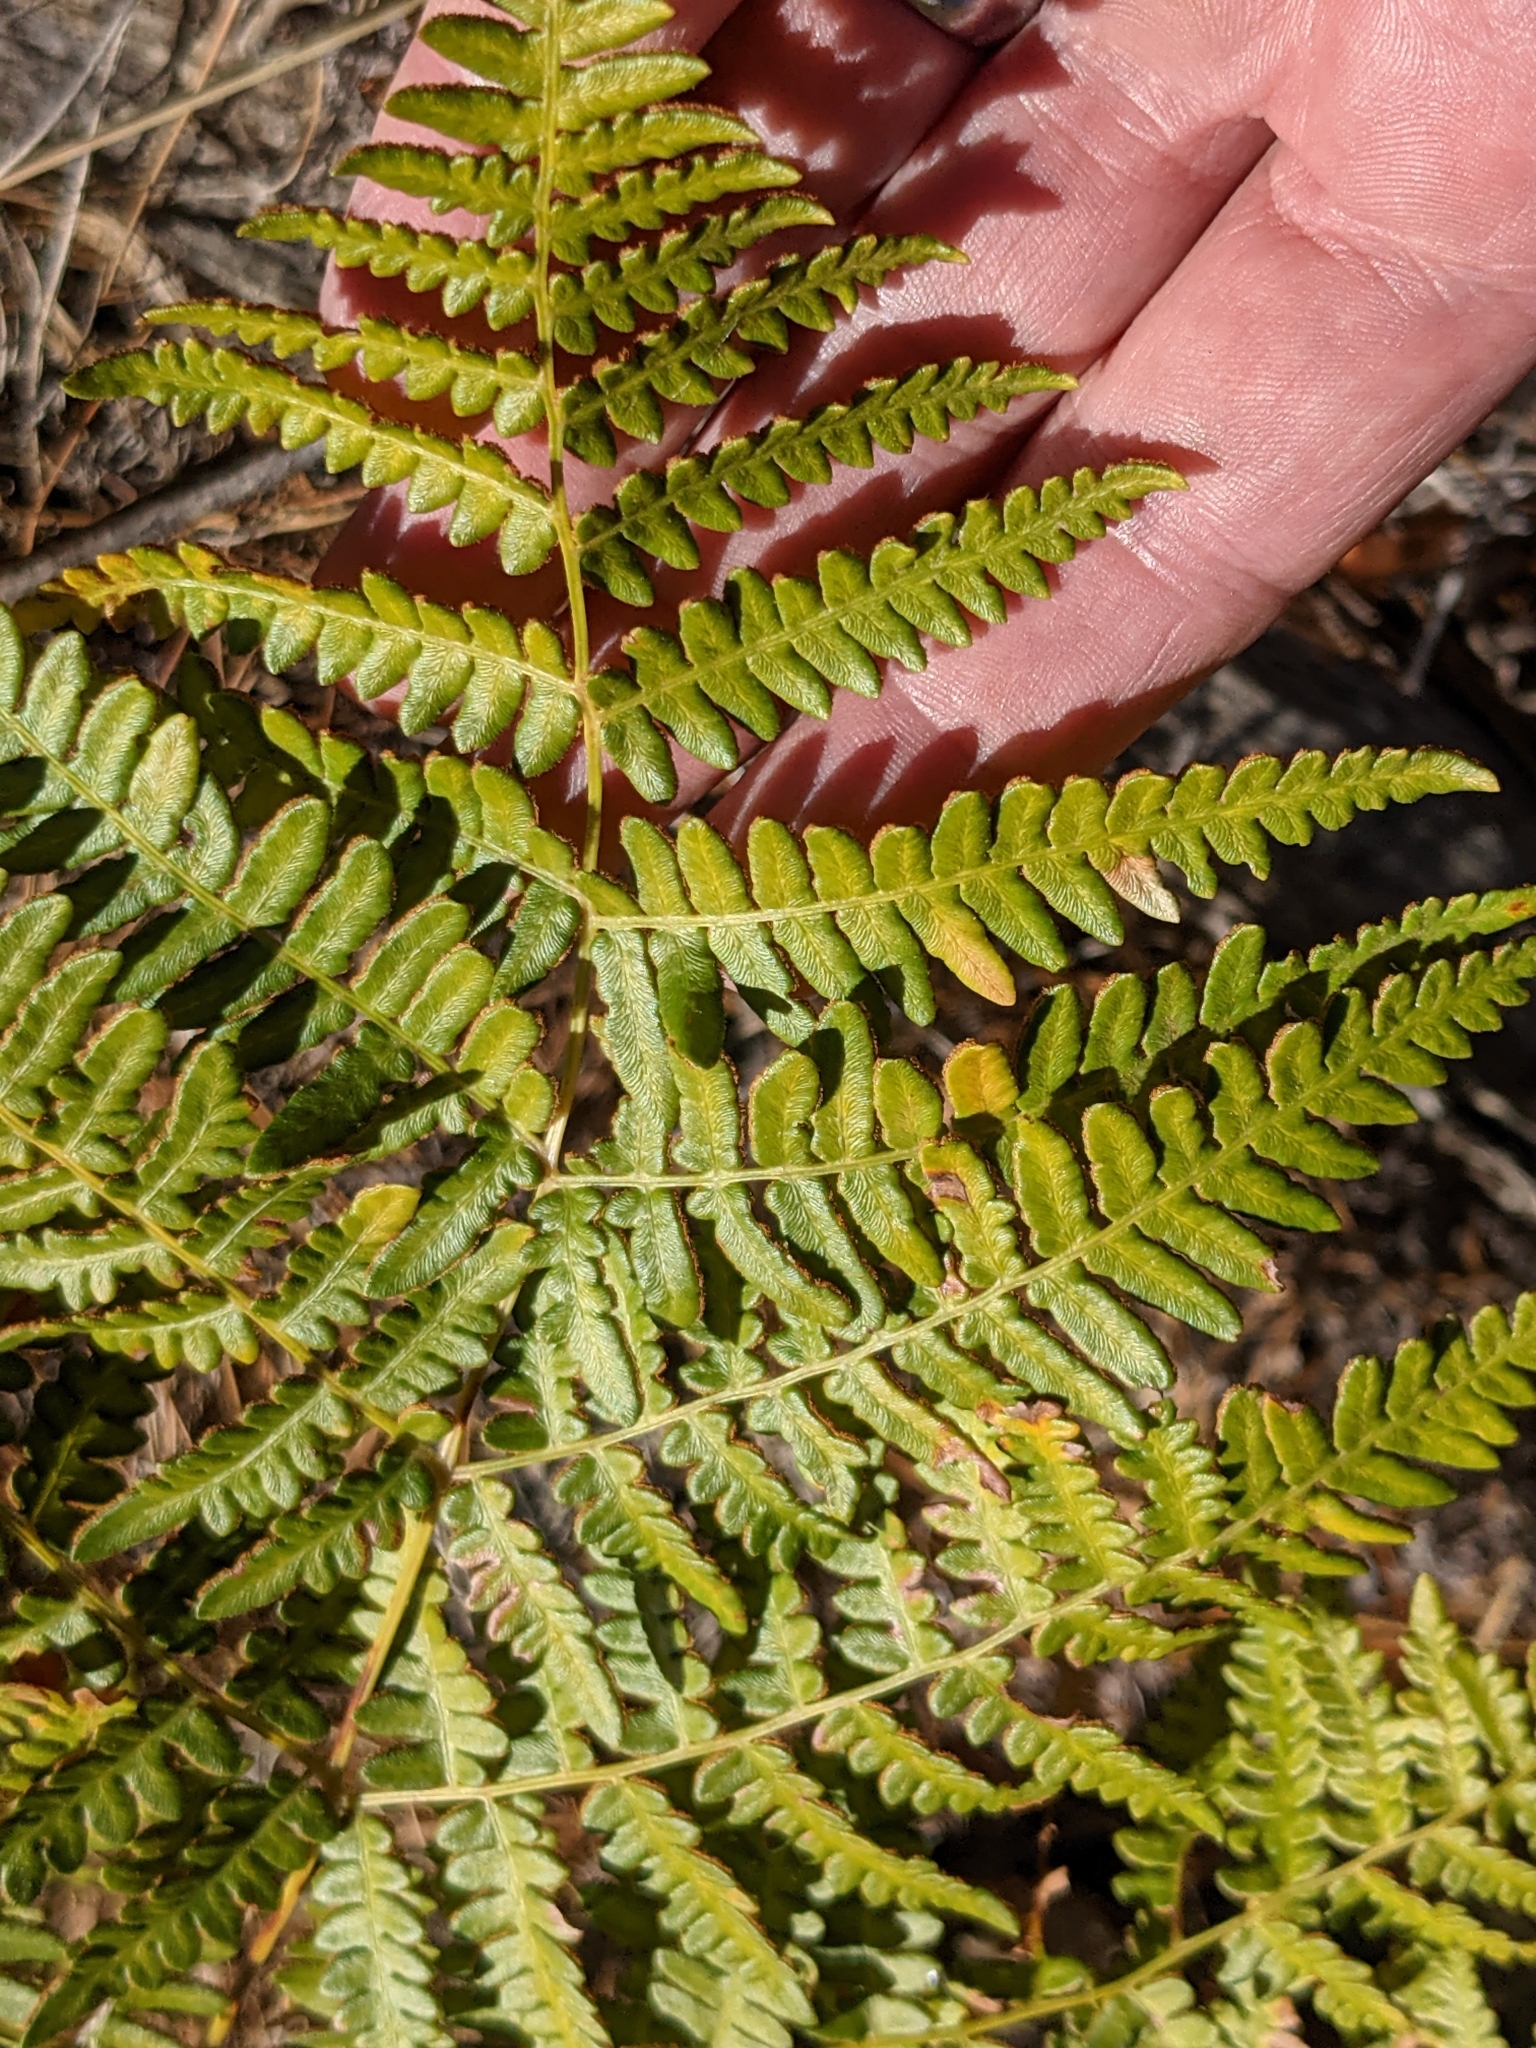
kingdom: Plantae
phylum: Tracheophyta
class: Polypodiopsida
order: Polypodiales
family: Dennstaedtiaceae
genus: Pteridium
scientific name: Pteridium aquilinum
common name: Bracken
